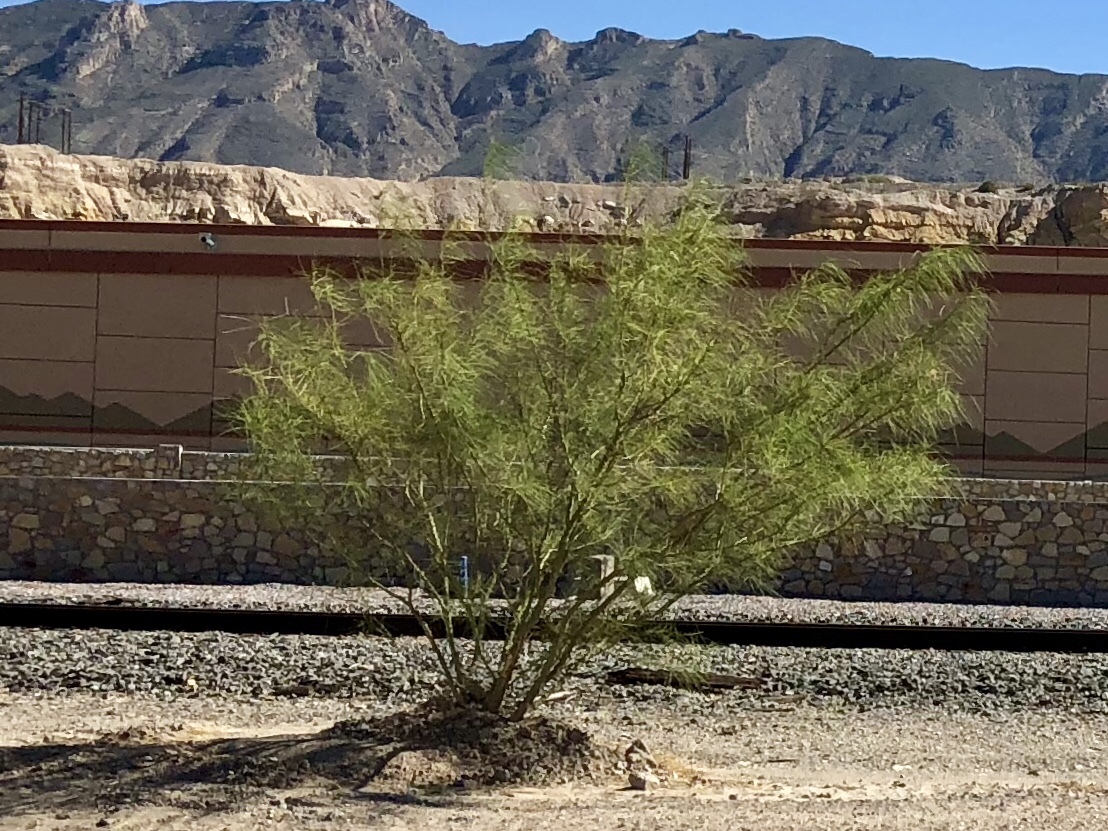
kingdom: Plantae
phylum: Tracheophyta
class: Magnoliopsida
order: Fabales
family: Fabaceae
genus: Parkinsonia
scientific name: Parkinsonia aculeata
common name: Jerusalem thorn
